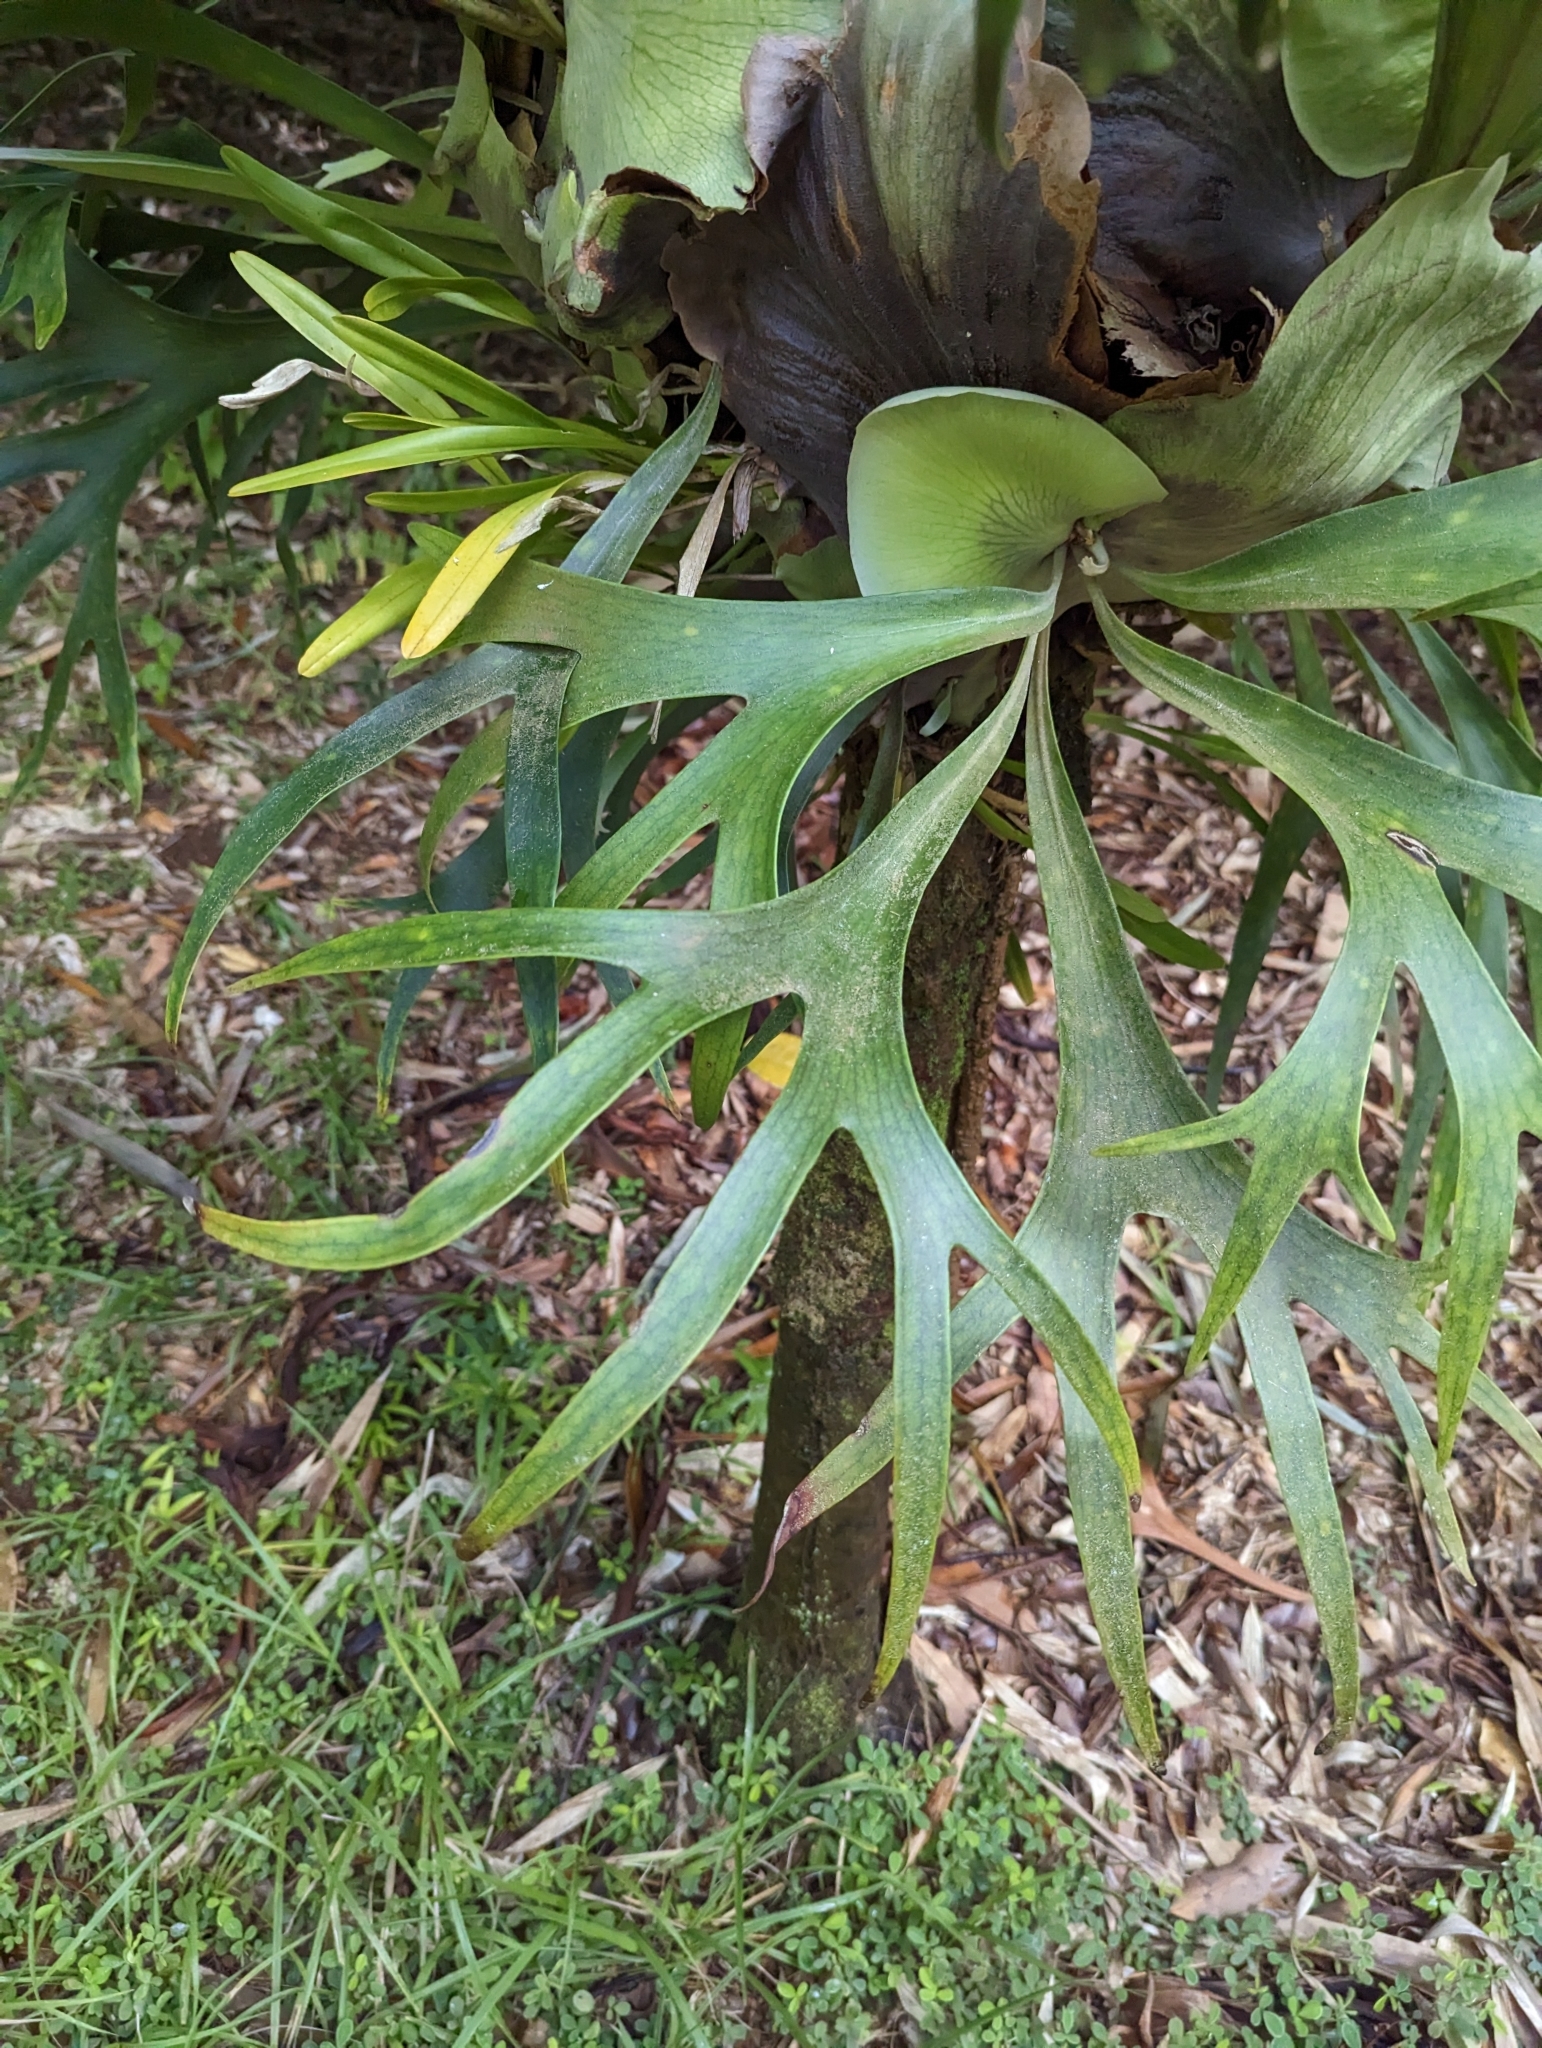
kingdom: Plantae
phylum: Tracheophyta
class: Polypodiopsida
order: Polypodiales
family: Polypodiaceae
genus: Platycerium
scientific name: Platycerium bifurcatum
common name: Elkhorn fern
